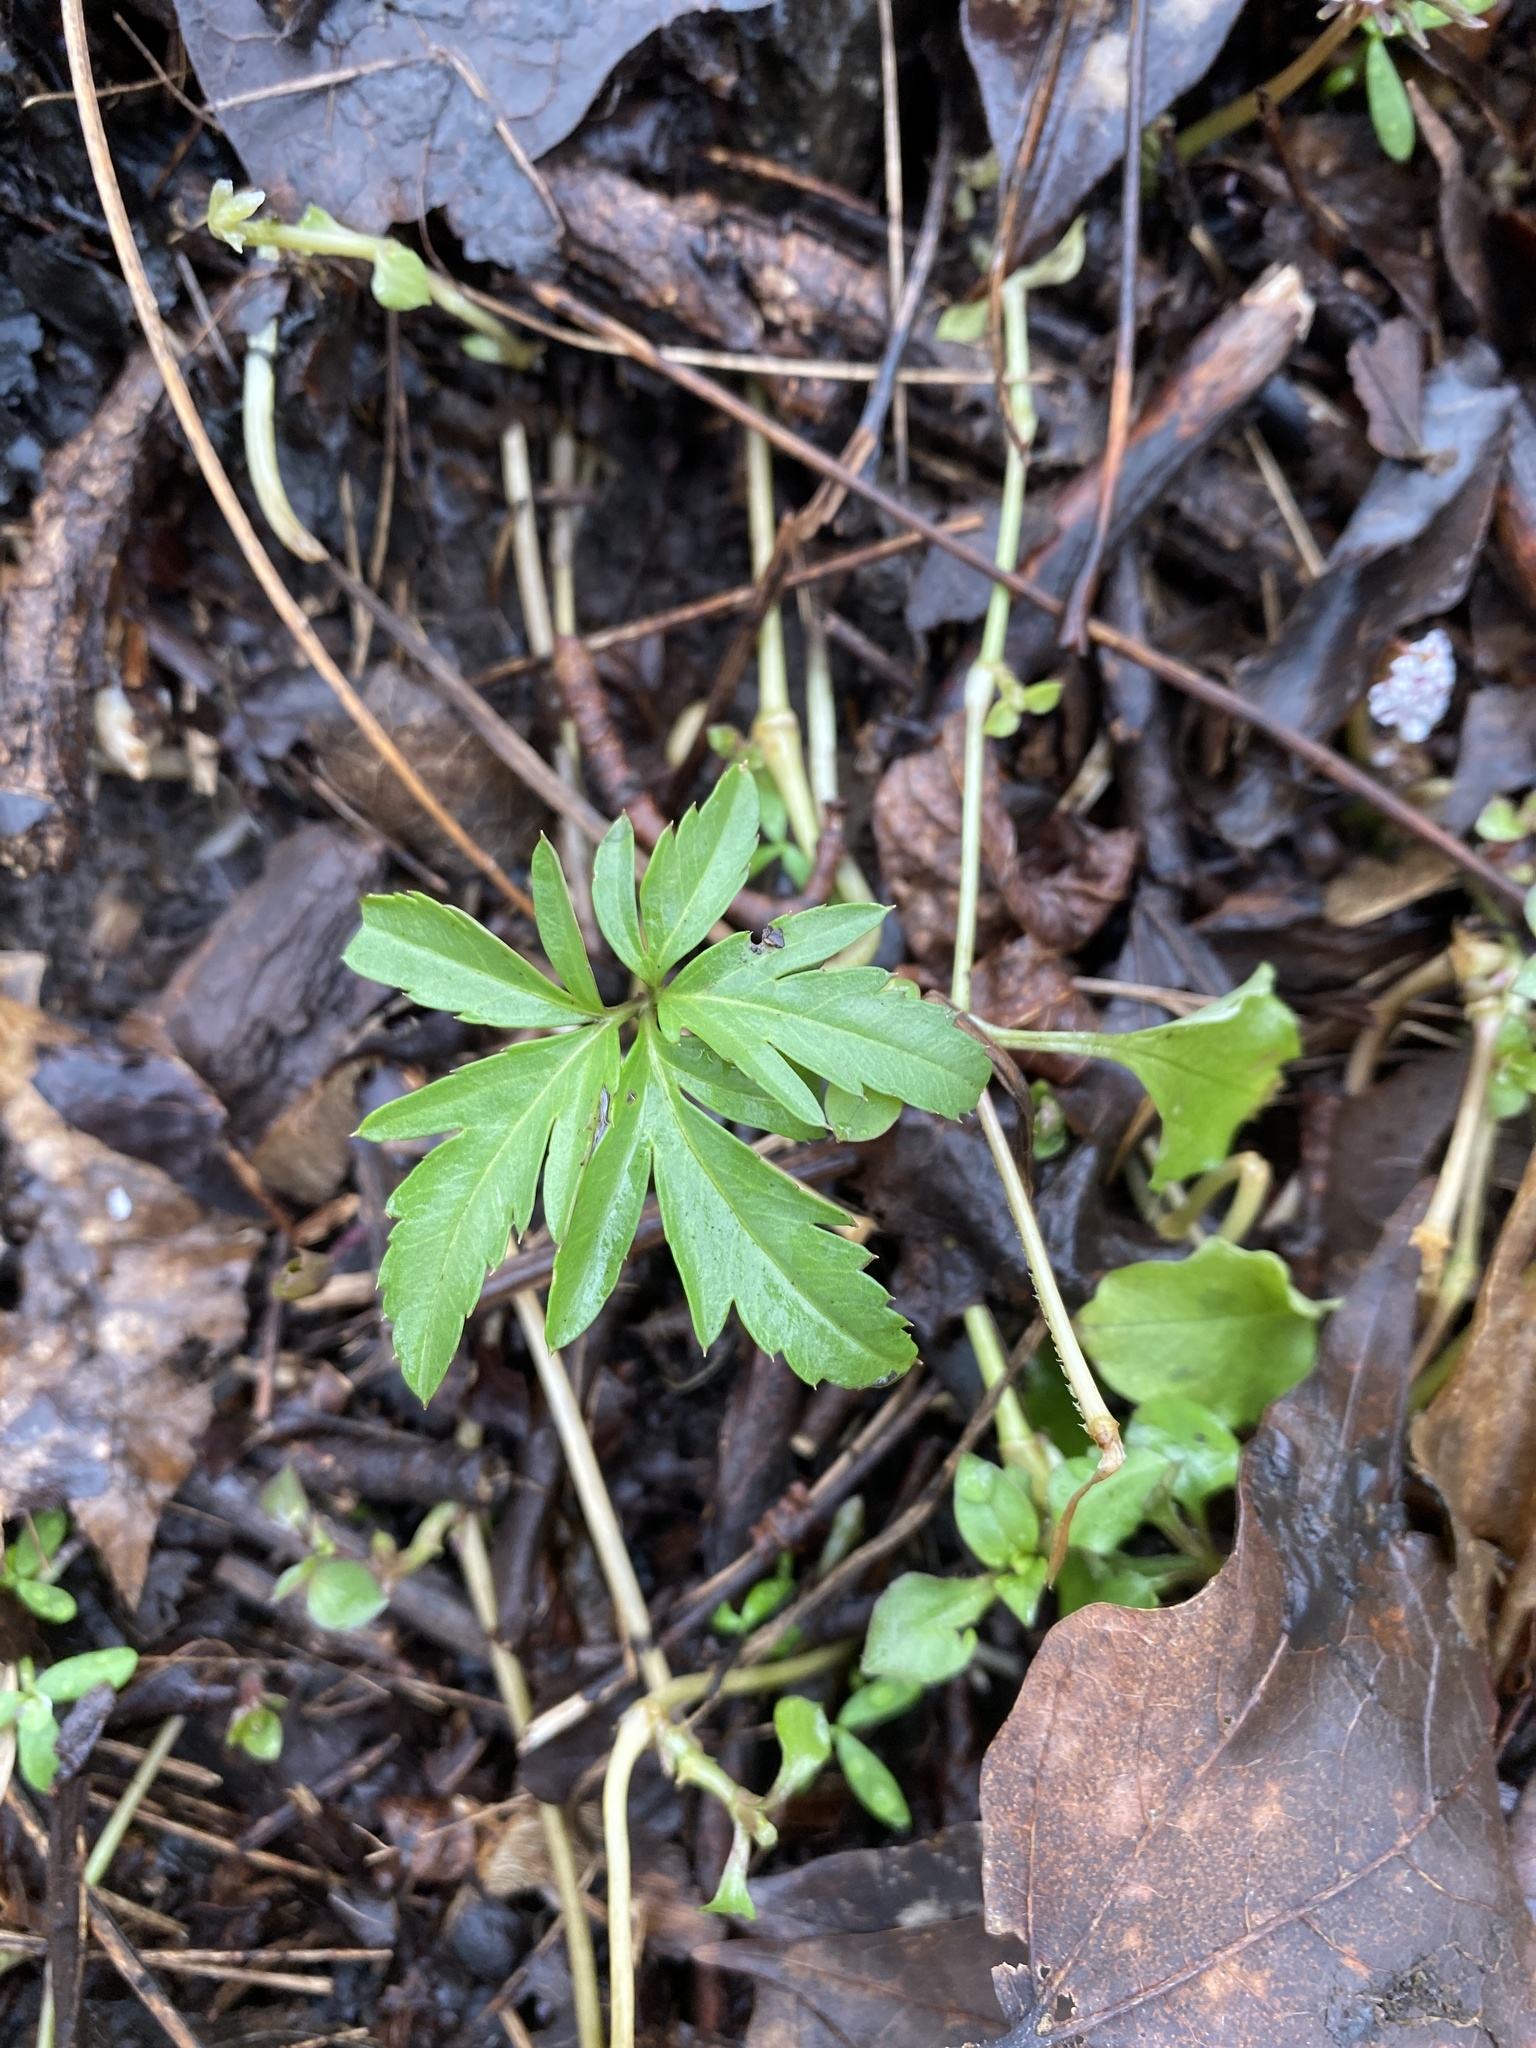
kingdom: Plantae
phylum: Tracheophyta
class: Magnoliopsida
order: Brassicales
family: Brassicaceae
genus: Cardamine
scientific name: Cardamine concatenata
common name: Cut-leaf toothcup
